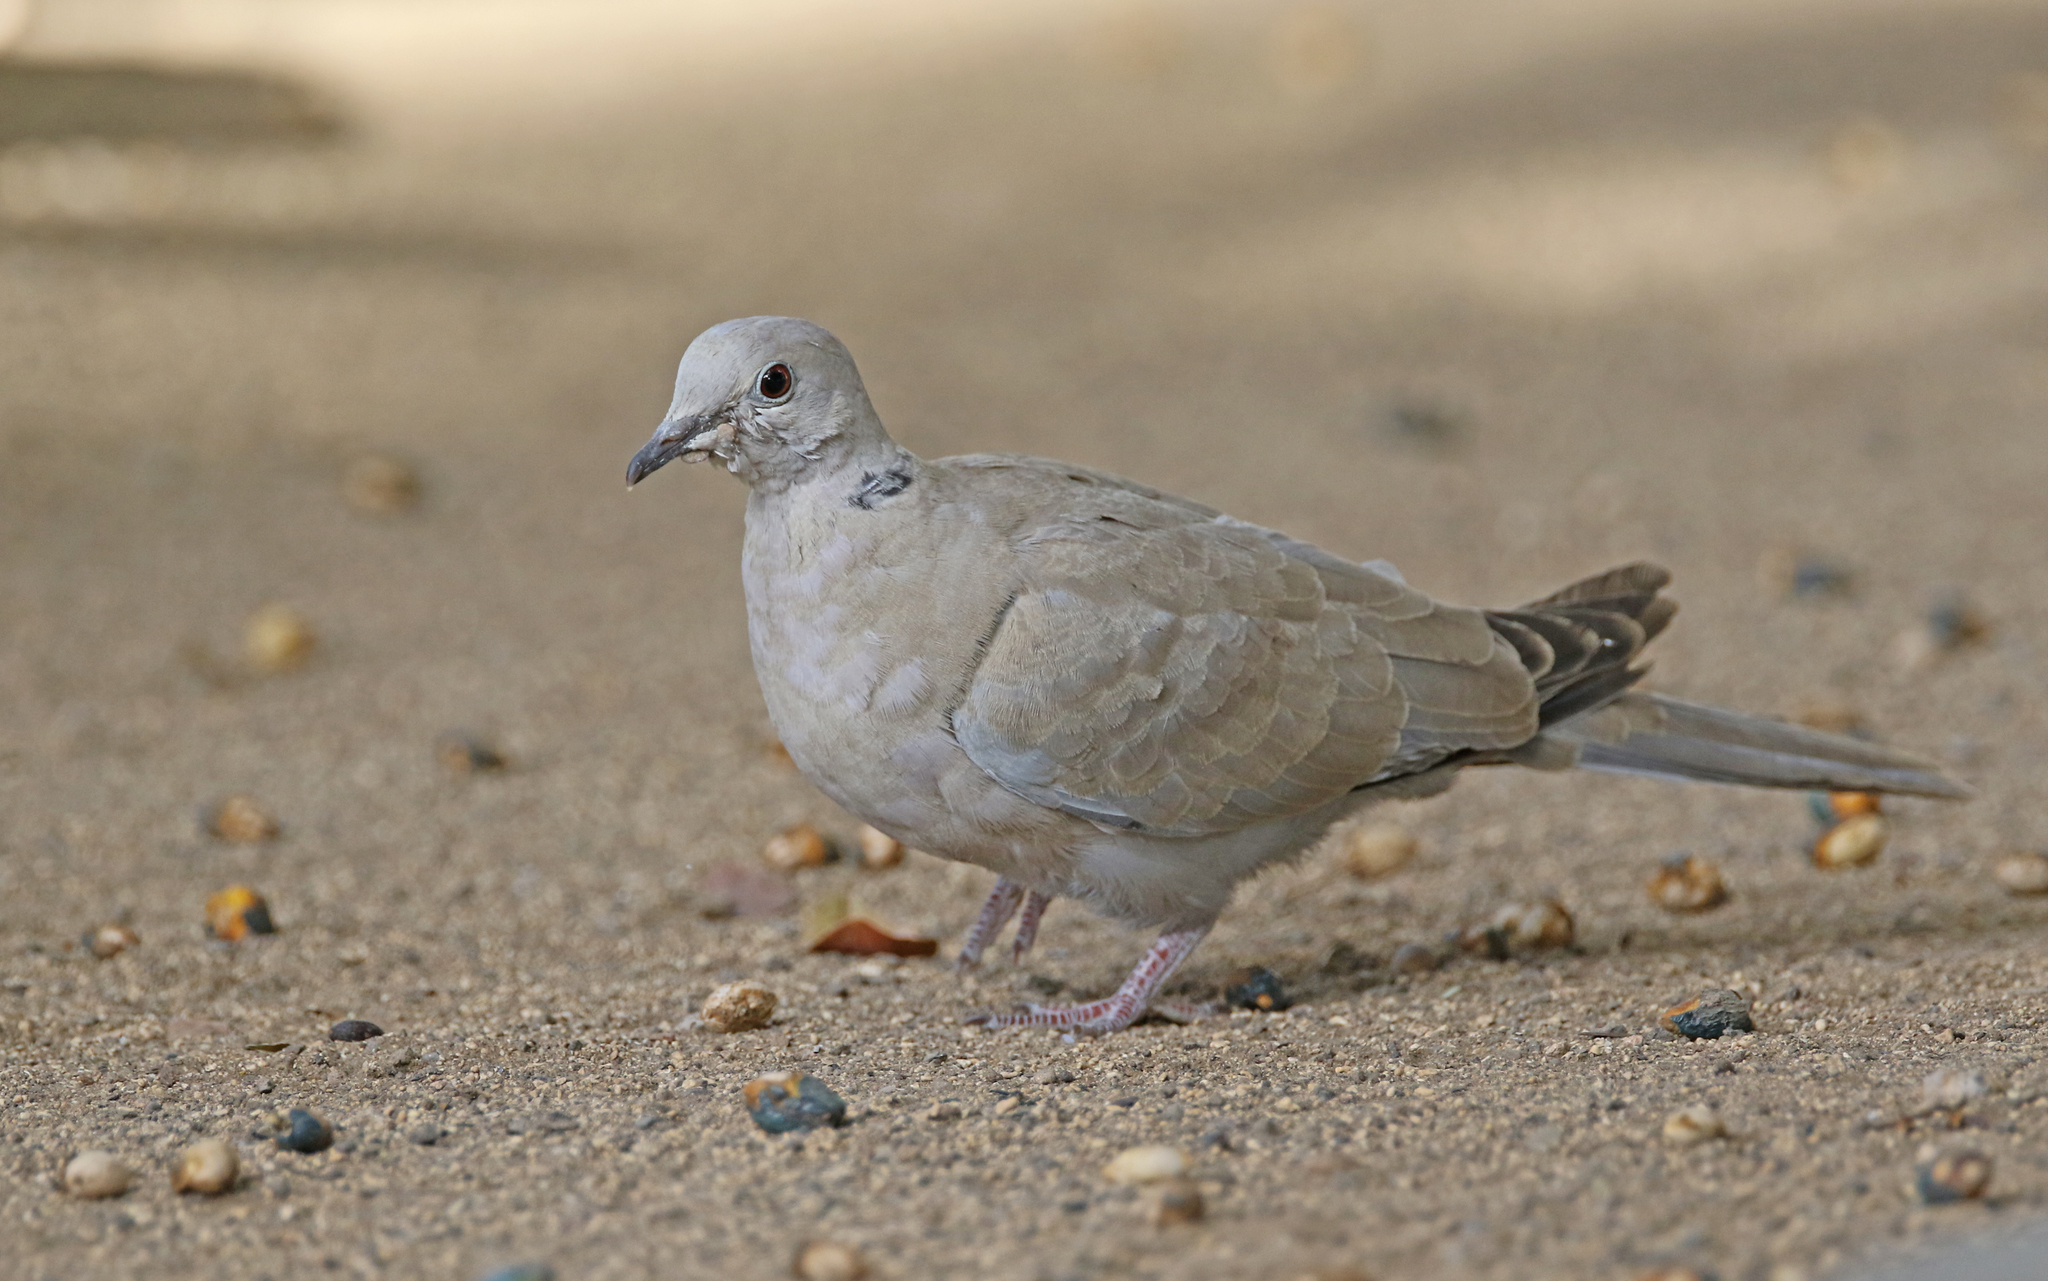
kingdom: Animalia
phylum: Chordata
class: Aves
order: Columbiformes
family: Columbidae
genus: Streptopelia
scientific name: Streptopelia decaocto
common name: Eurasian collared dove
